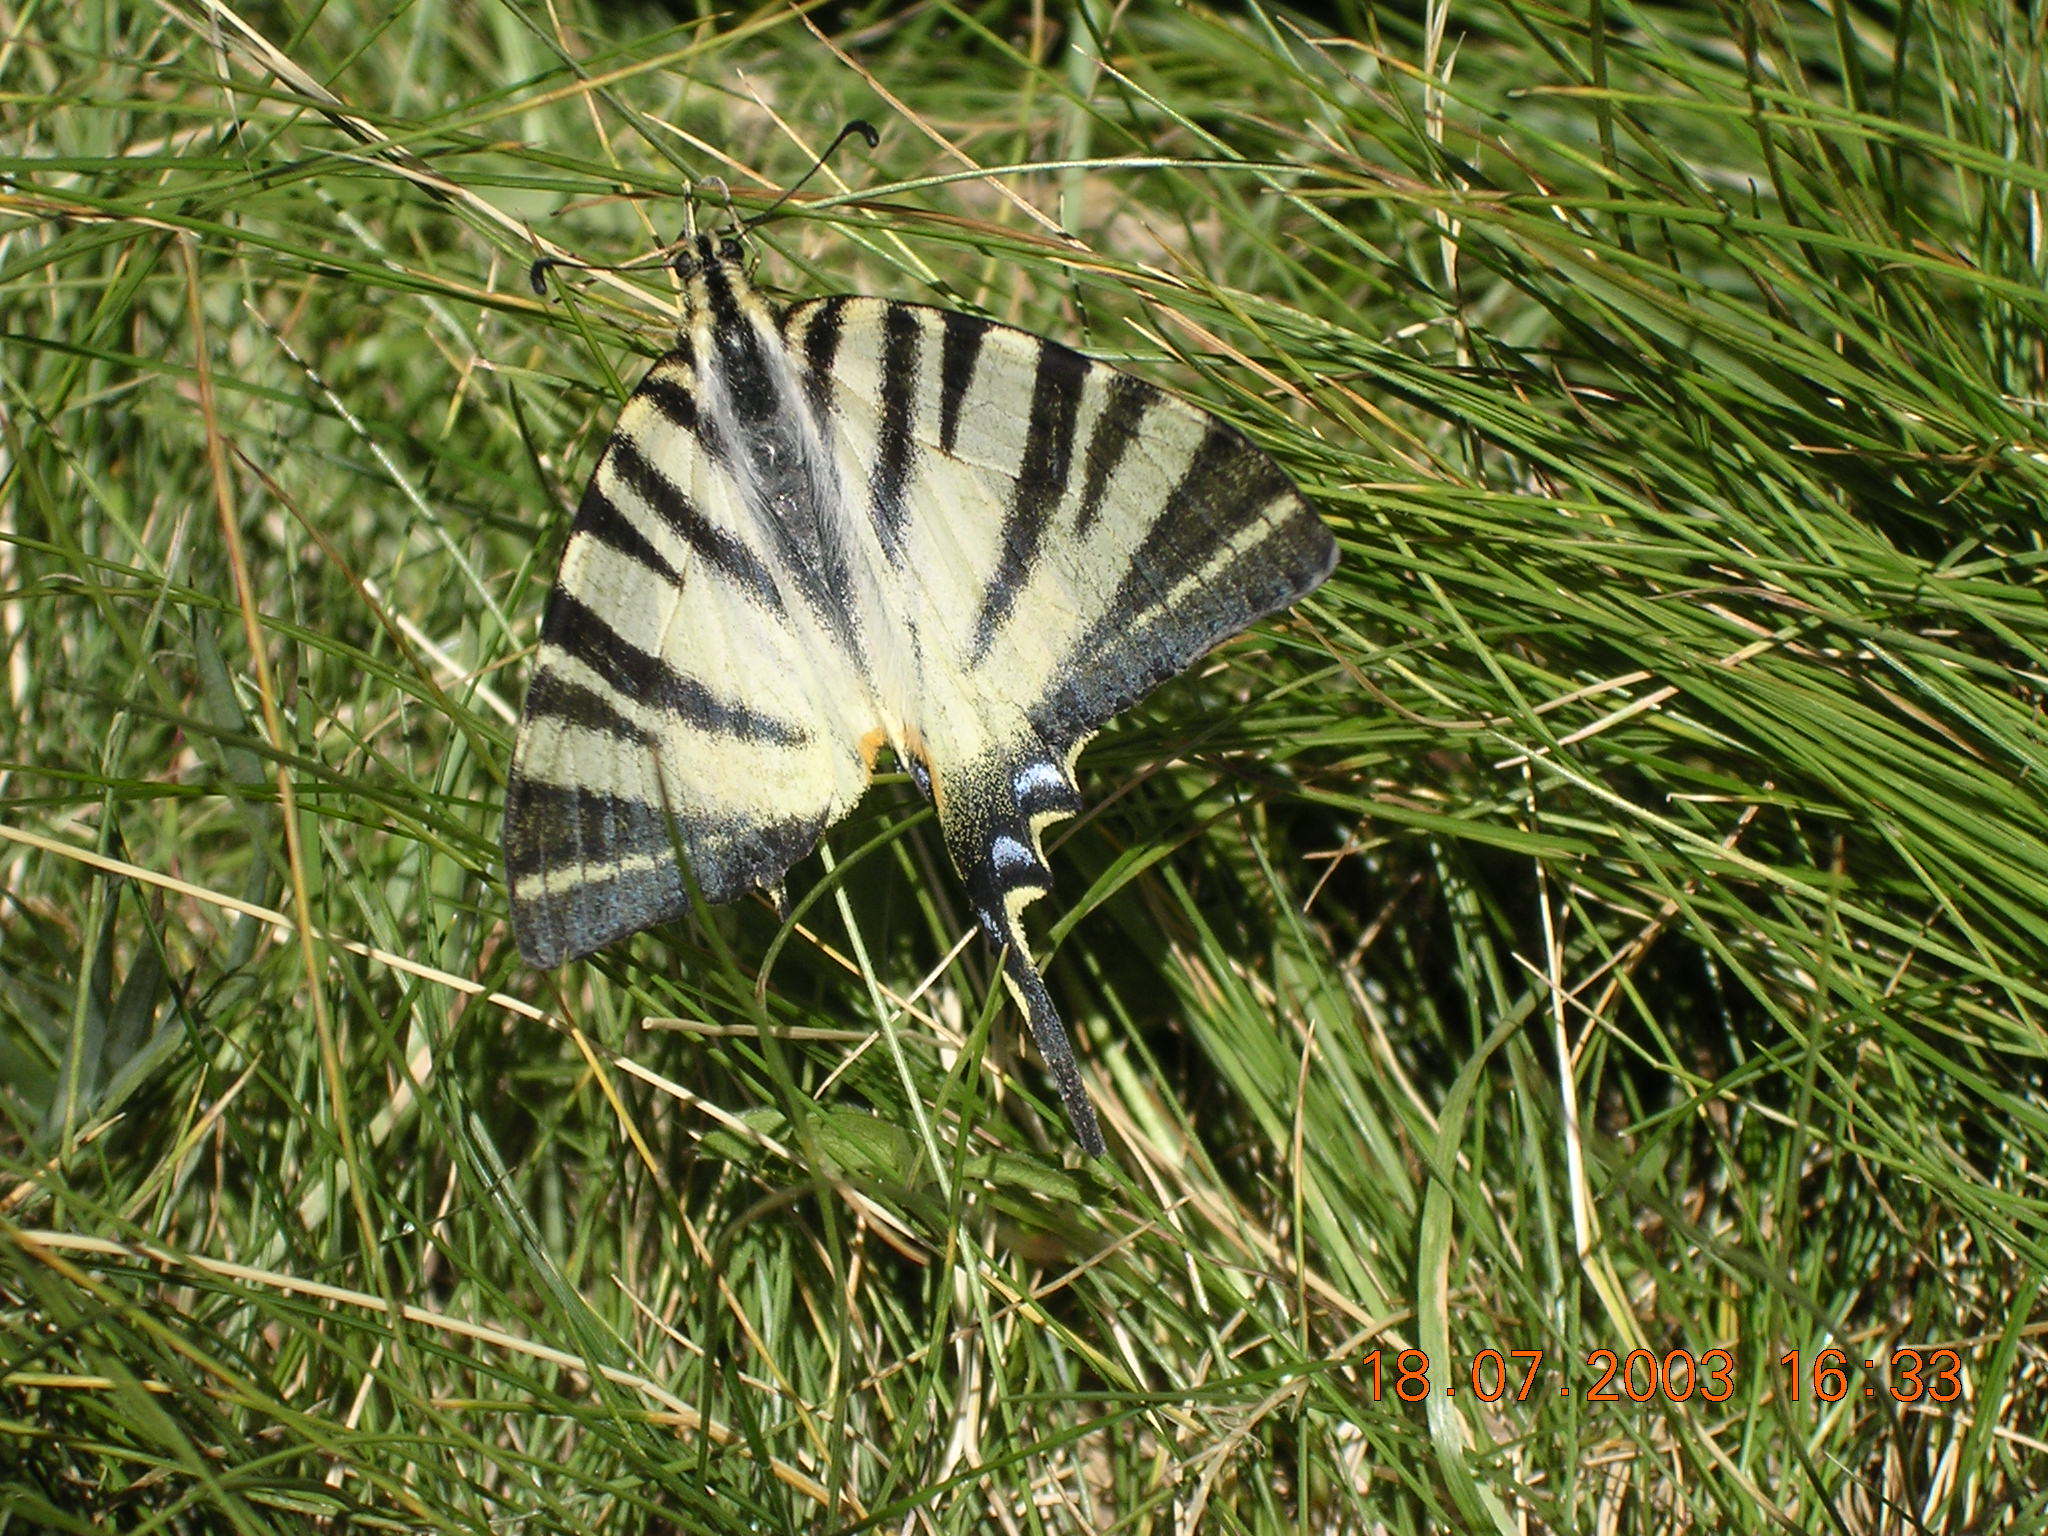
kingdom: Animalia
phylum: Arthropoda
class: Insecta
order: Lepidoptera
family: Papilionidae
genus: Iphiclides
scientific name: Iphiclides podalirius
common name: Scarce swallowtail
